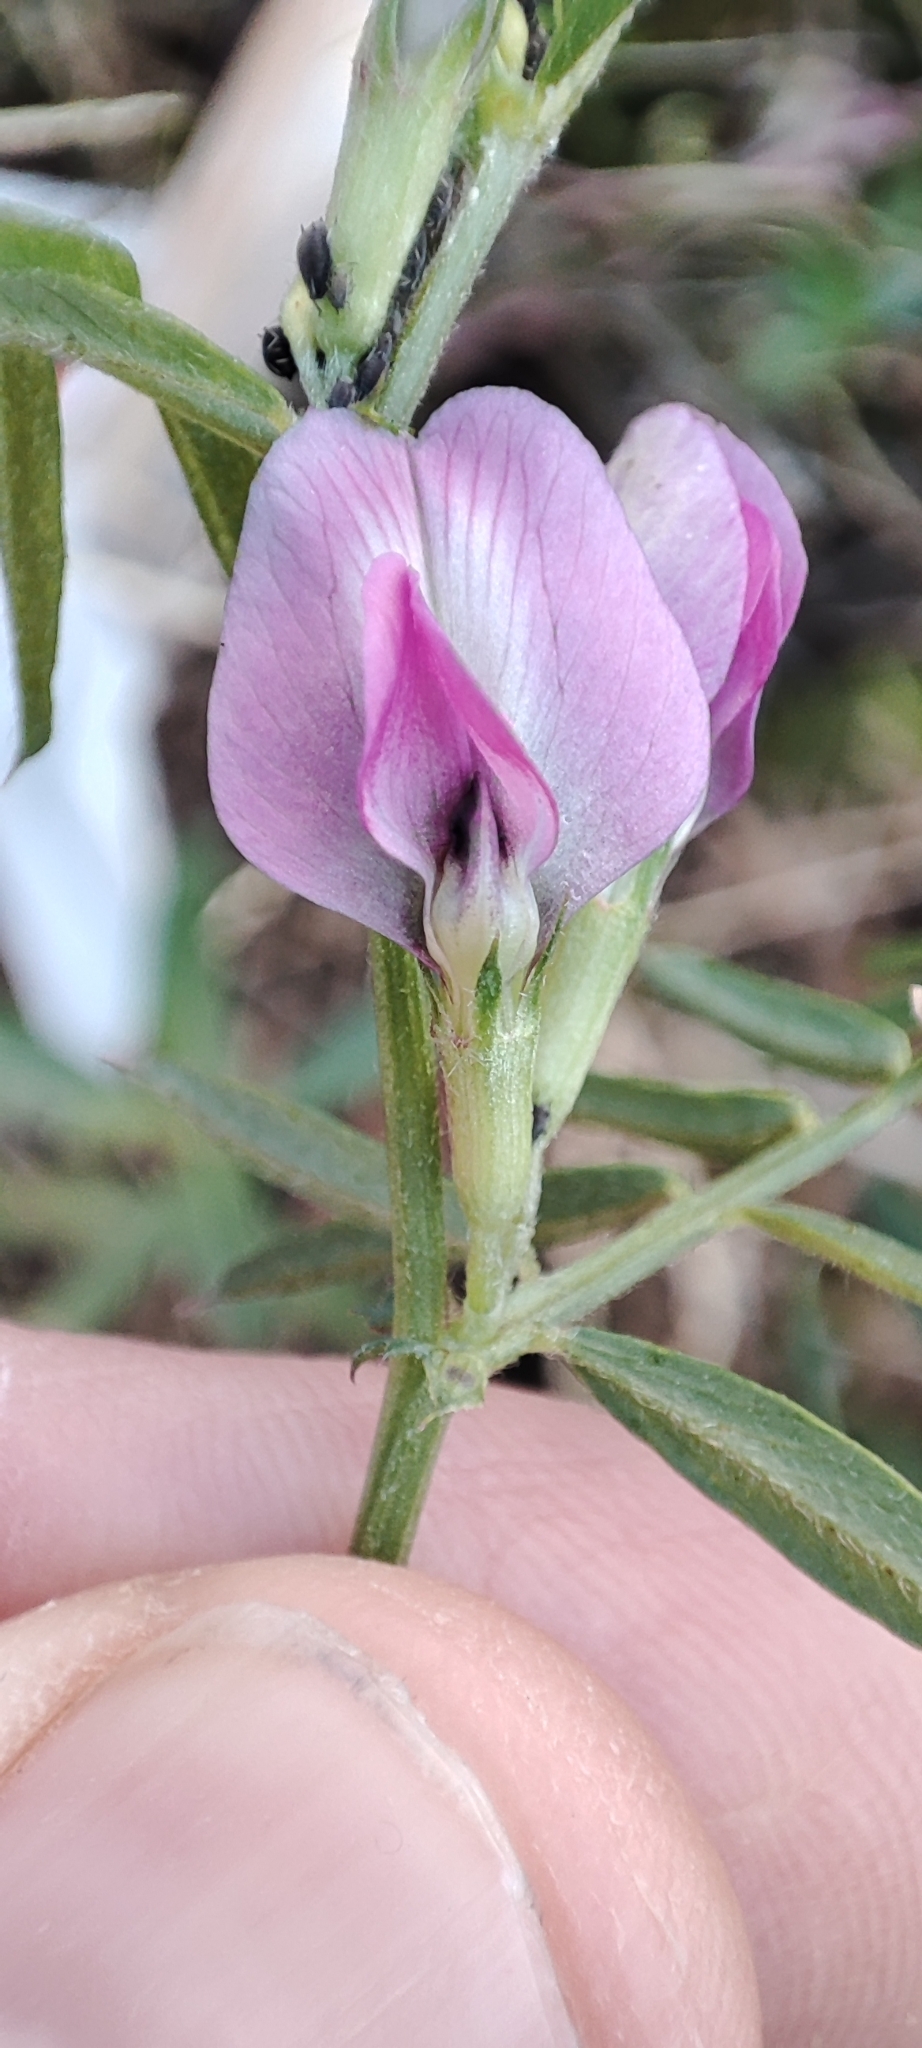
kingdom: Plantae
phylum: Tracheophyta
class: Magnoliopsida
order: Fabales
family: Fabaceae
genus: Vicia
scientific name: Vicia sativa
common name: Garden vetch
